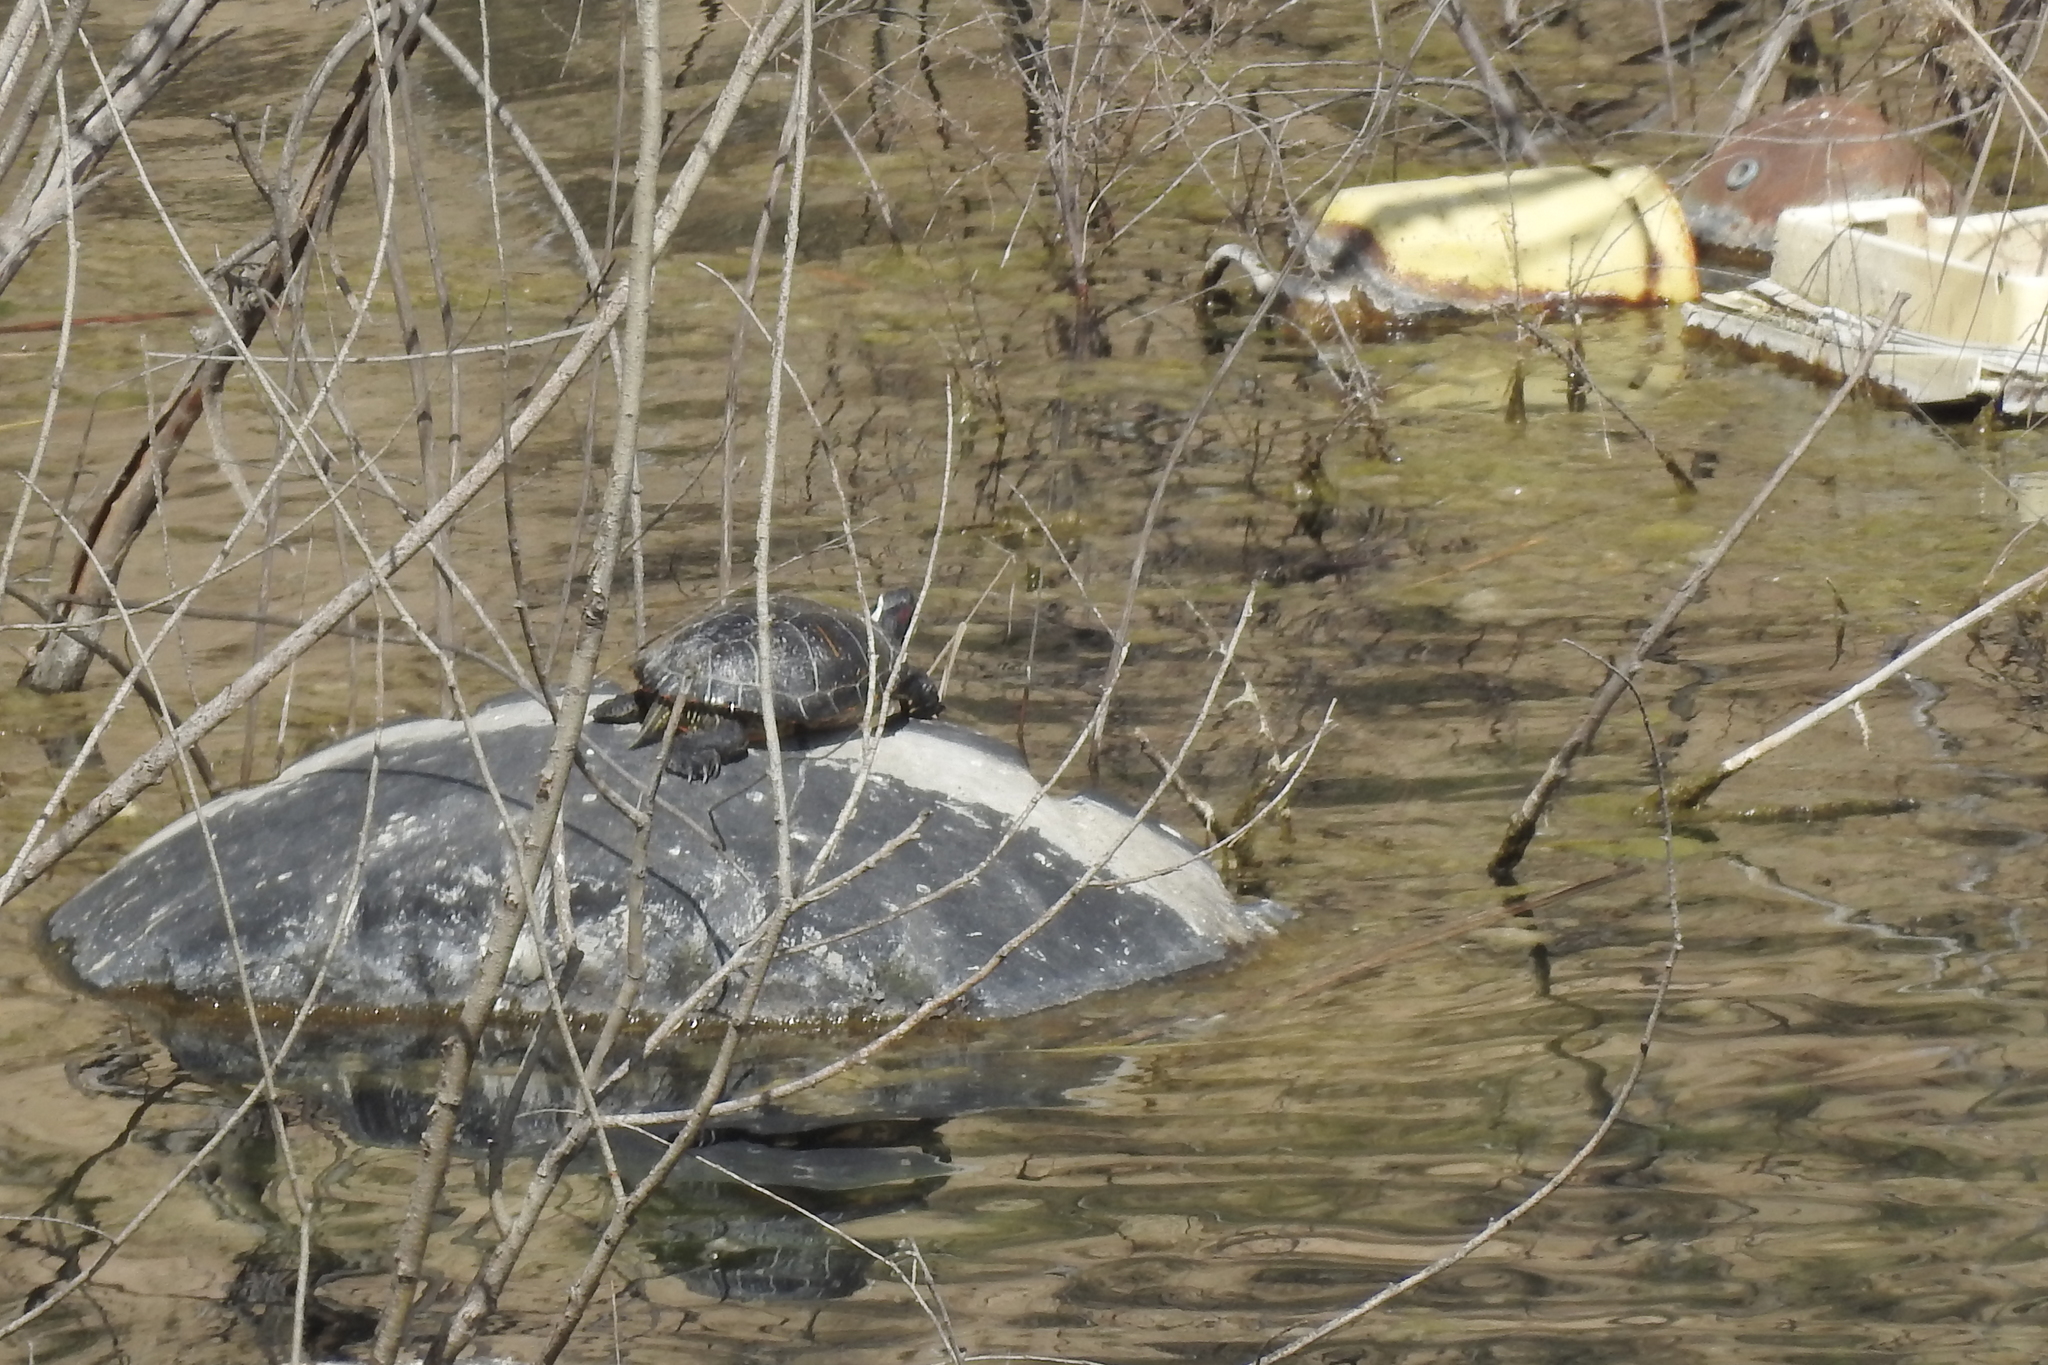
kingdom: Animalia
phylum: Chordata
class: Testudines
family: Emydidae
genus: Trachemys
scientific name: Trachemys scripta
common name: Slider
